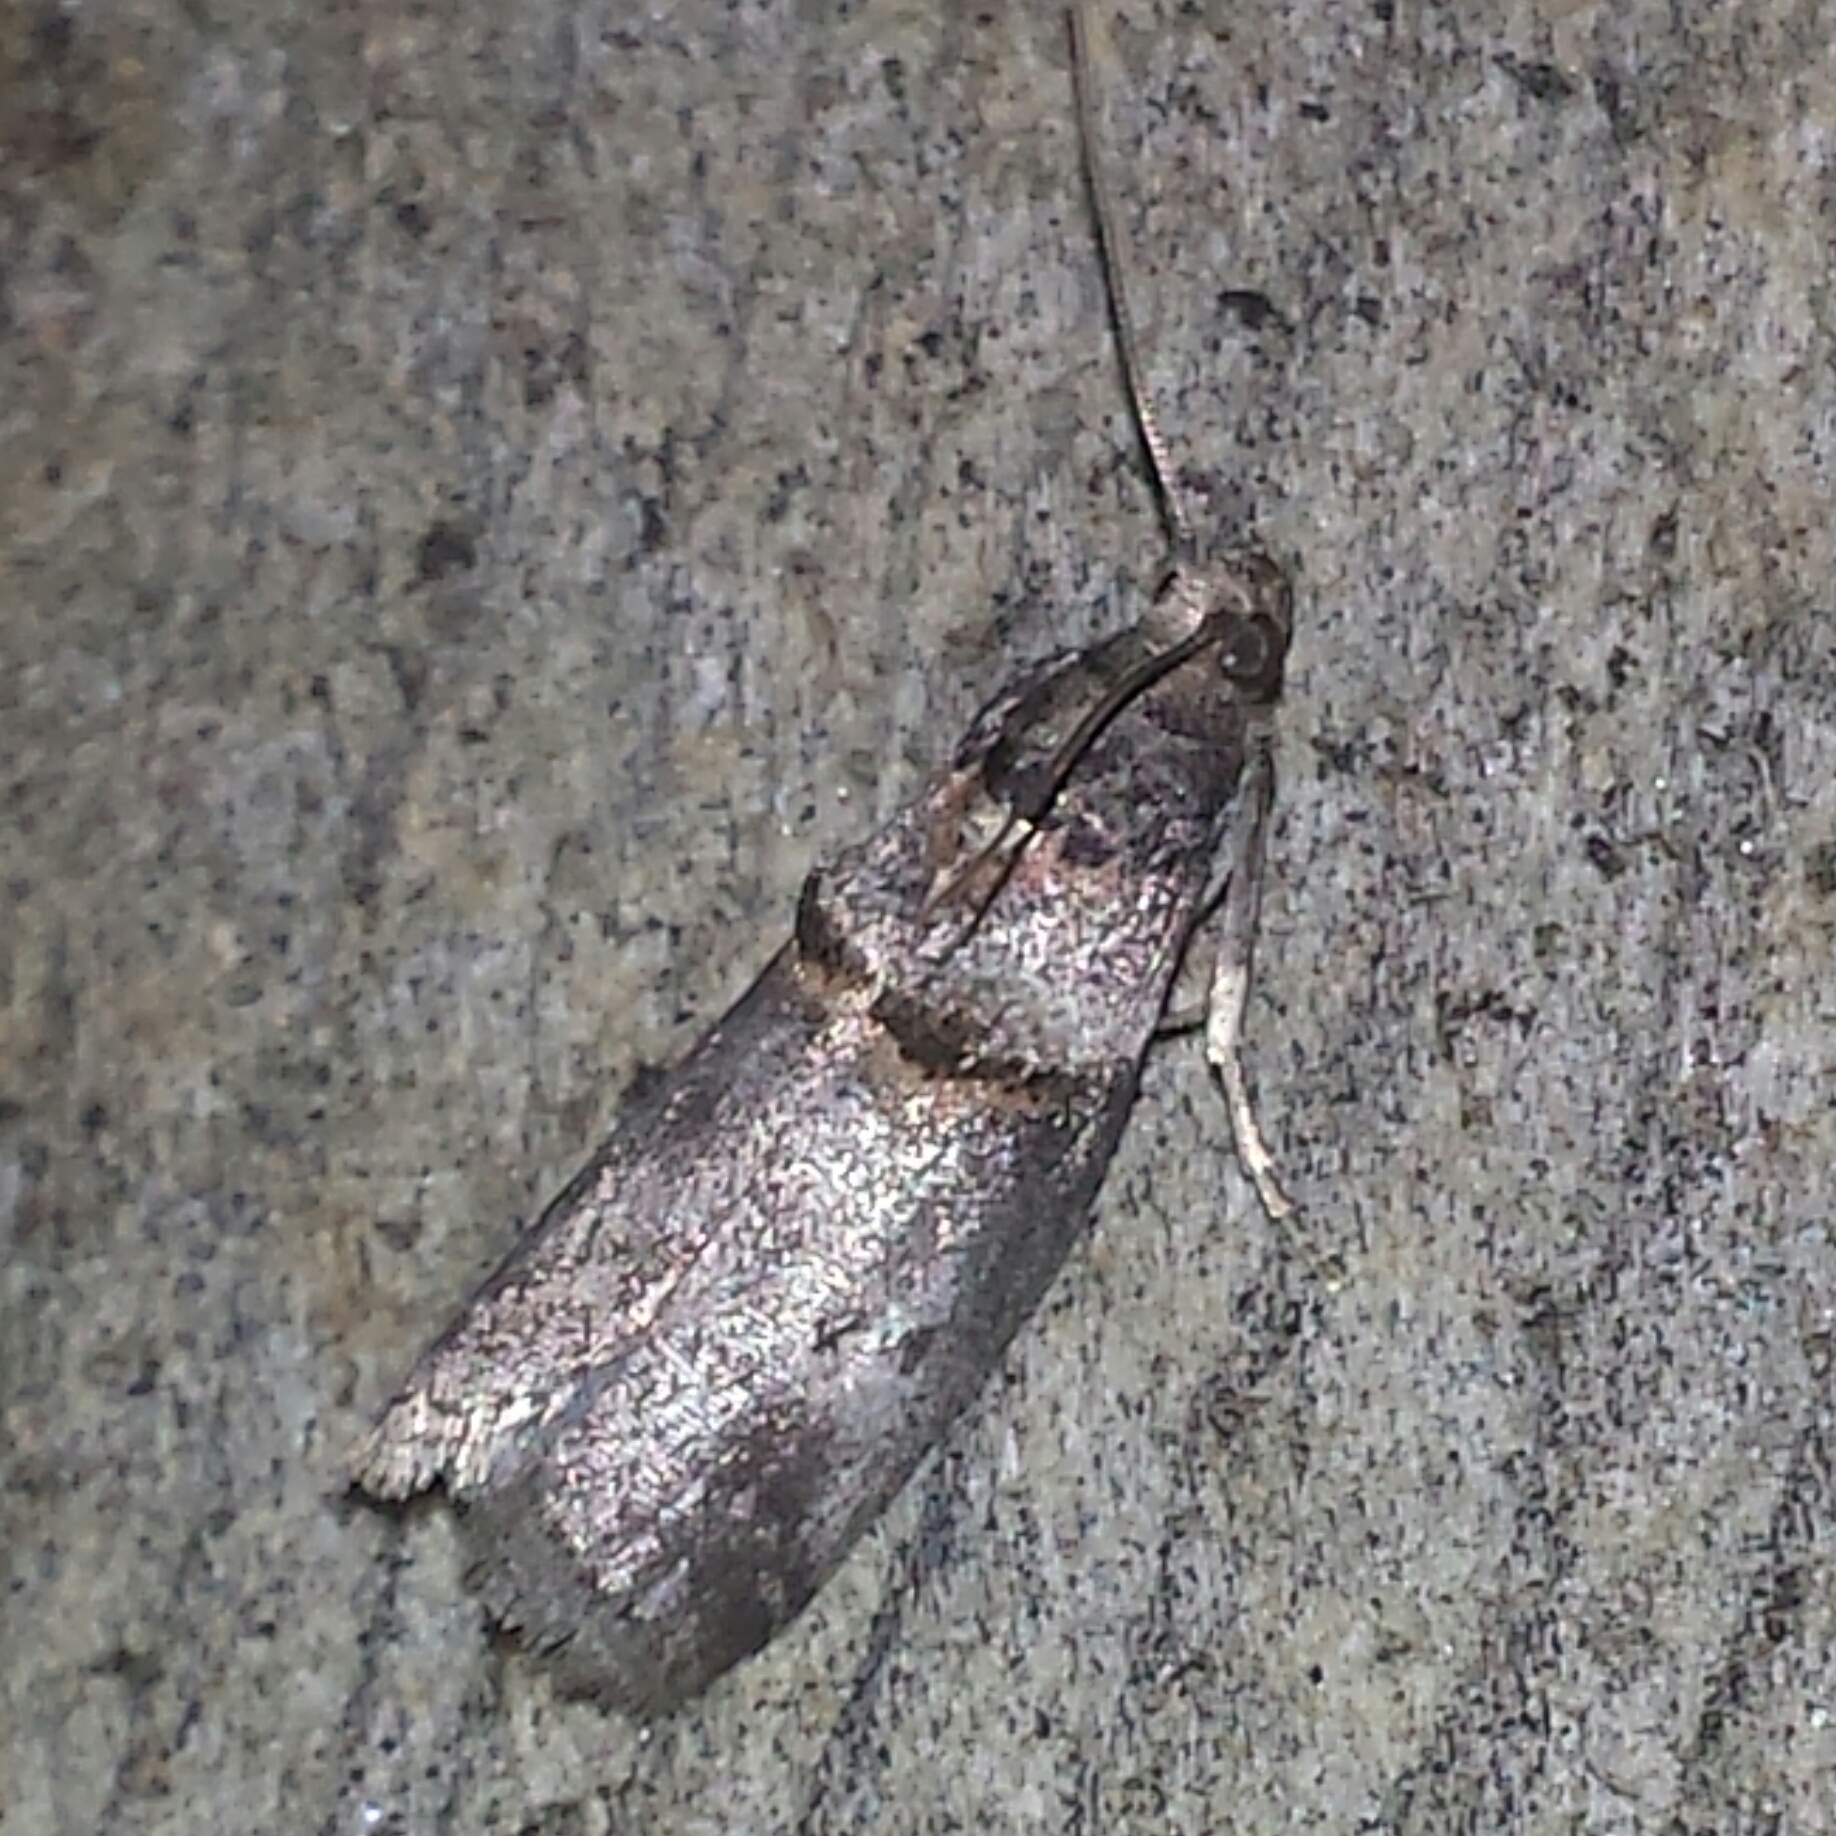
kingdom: Animalia
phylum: Arthropoda
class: Insecta
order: Lepidoptera
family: Pyralidae
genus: Acrobasis
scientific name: Acrobasis caryae
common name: Hickory shoot borer moth
